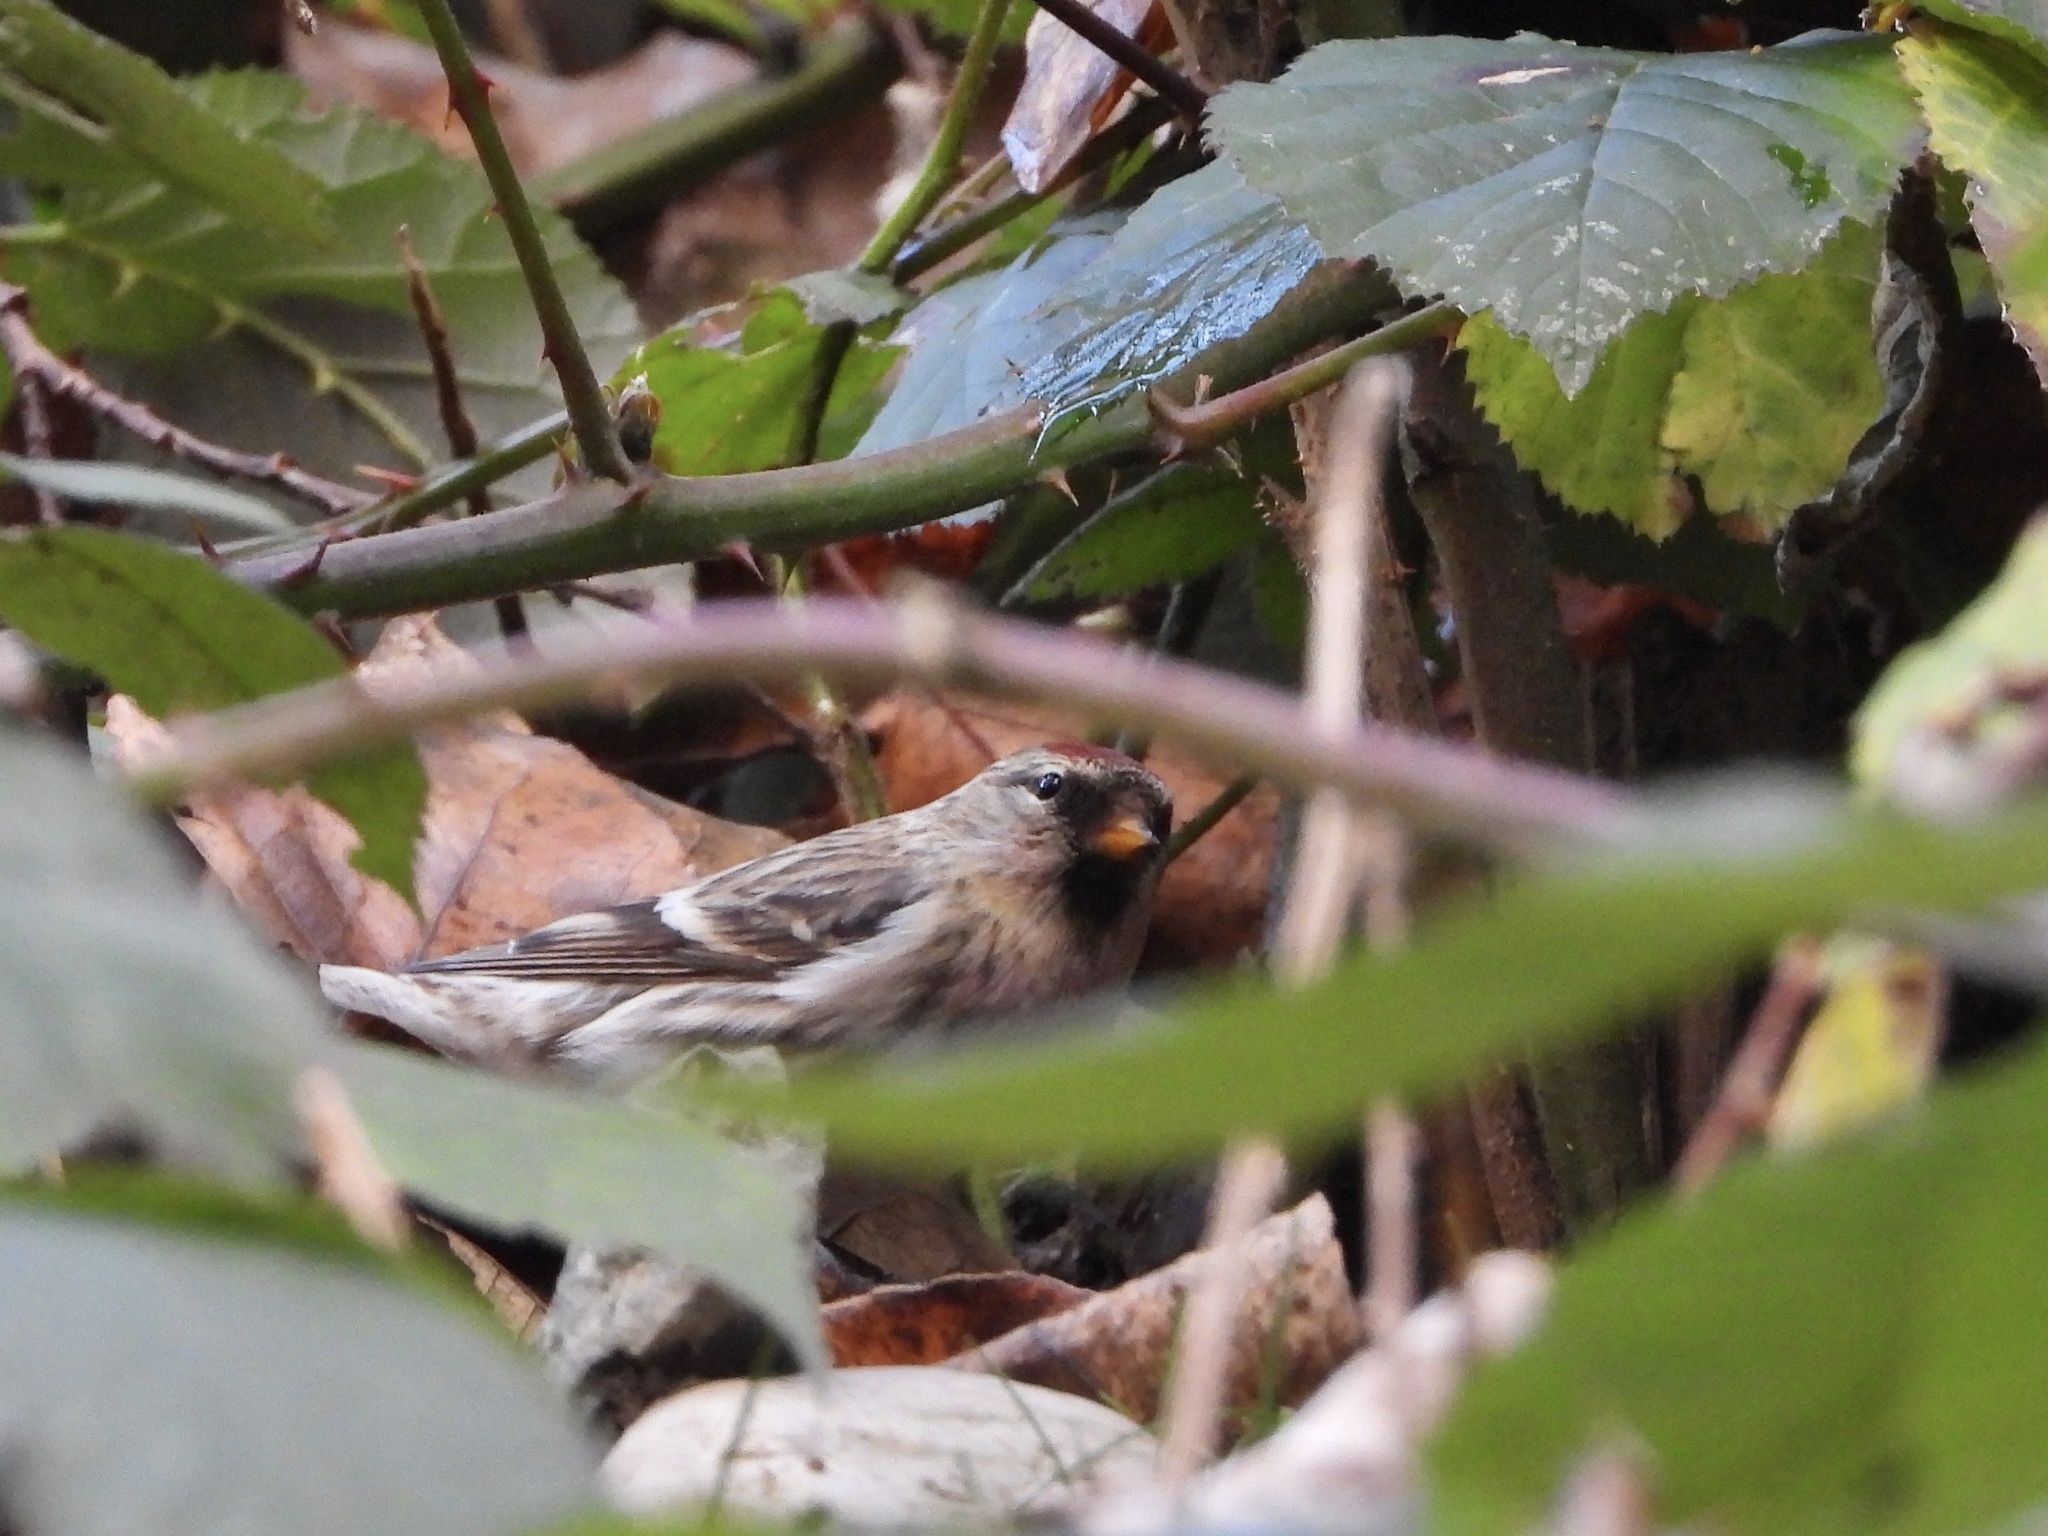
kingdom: Animalia
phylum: Chordata
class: Aves
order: Passeriformes
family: Fringillidae
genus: Acanthis
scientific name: Acanthis flammea
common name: Common redpoll
